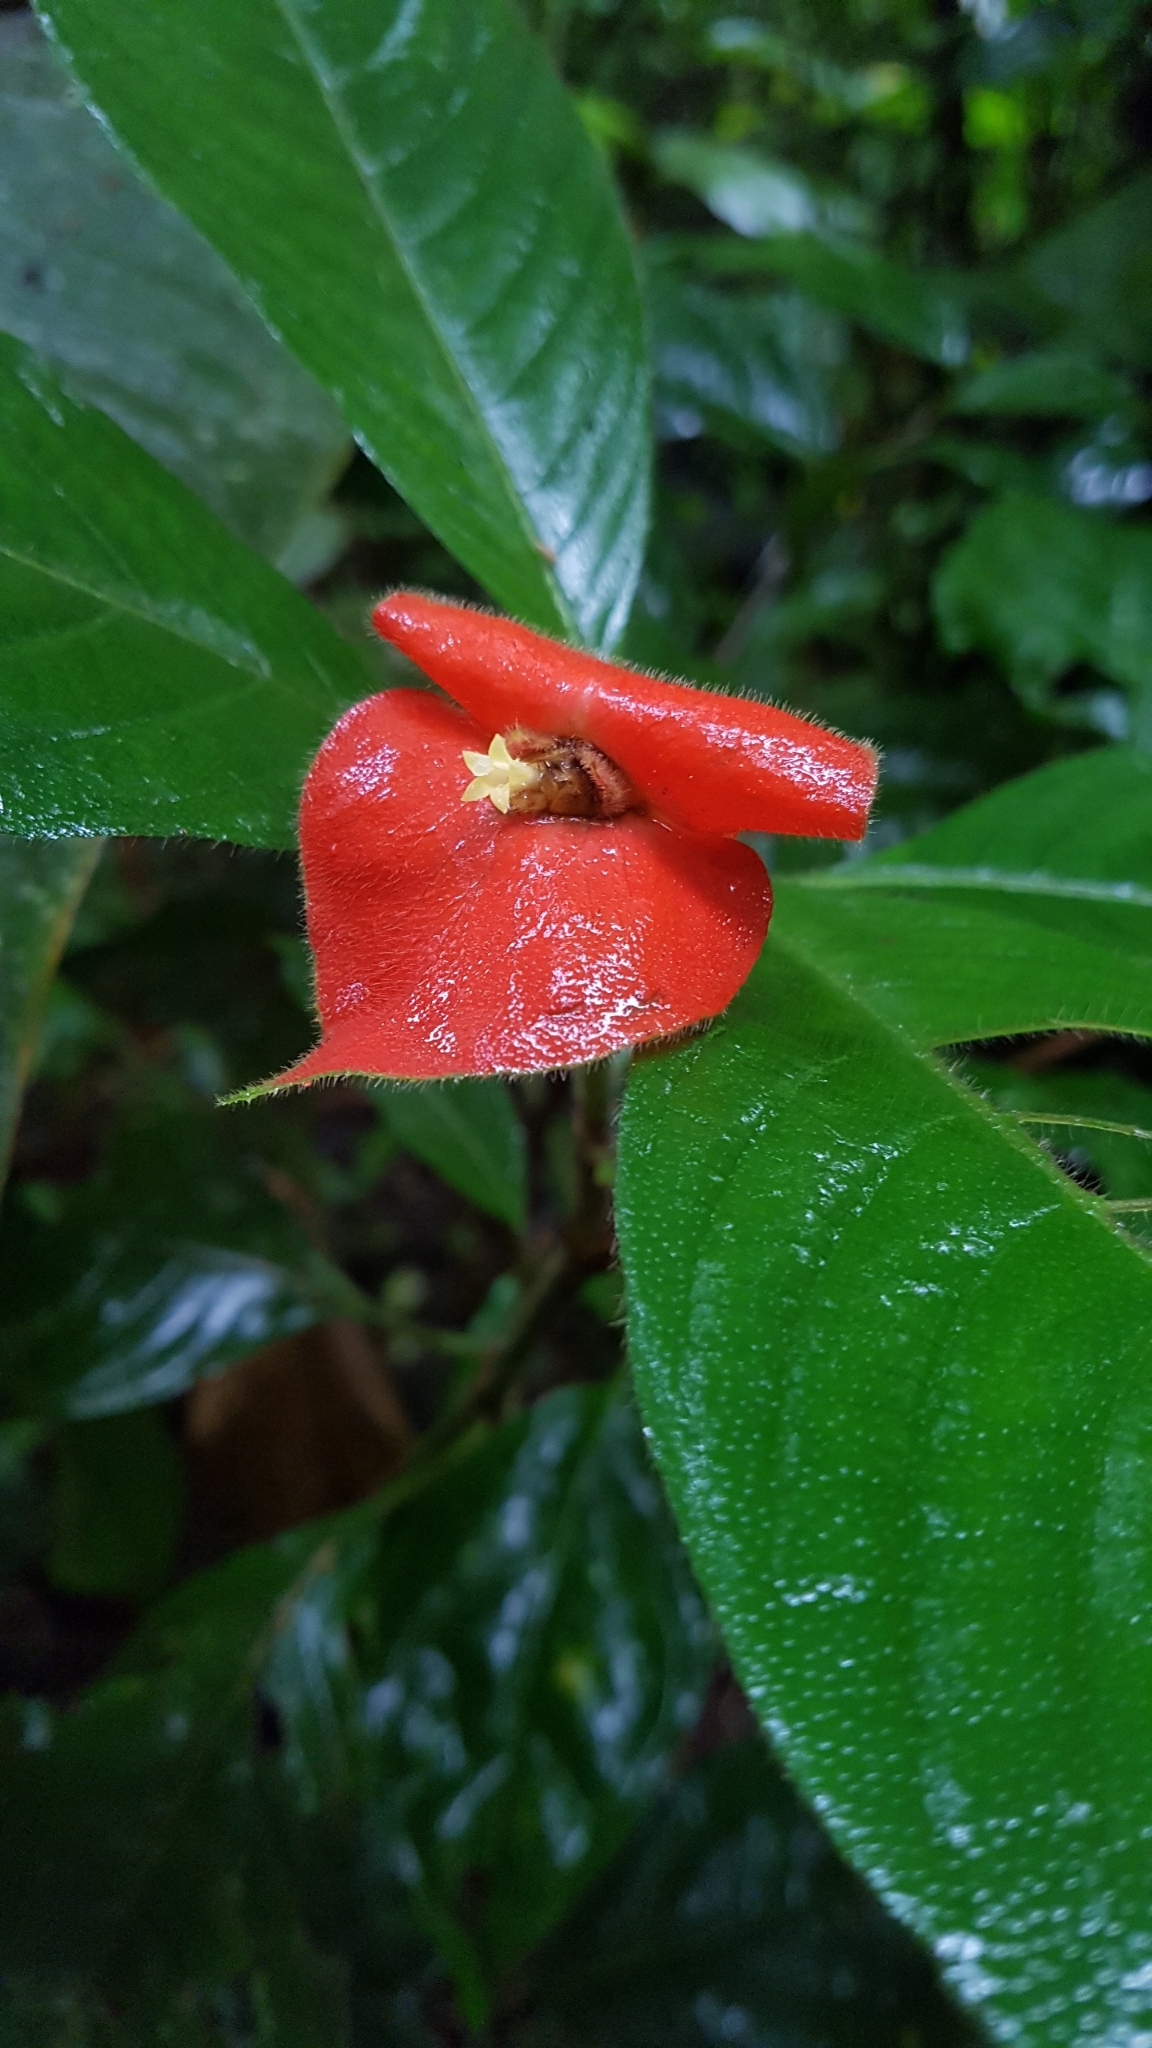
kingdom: Plantae
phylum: Tracheophyta
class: Magnoliopsida
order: Gentianales
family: Rubiaceae
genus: Palicourea
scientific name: Palicourea tomentosa
